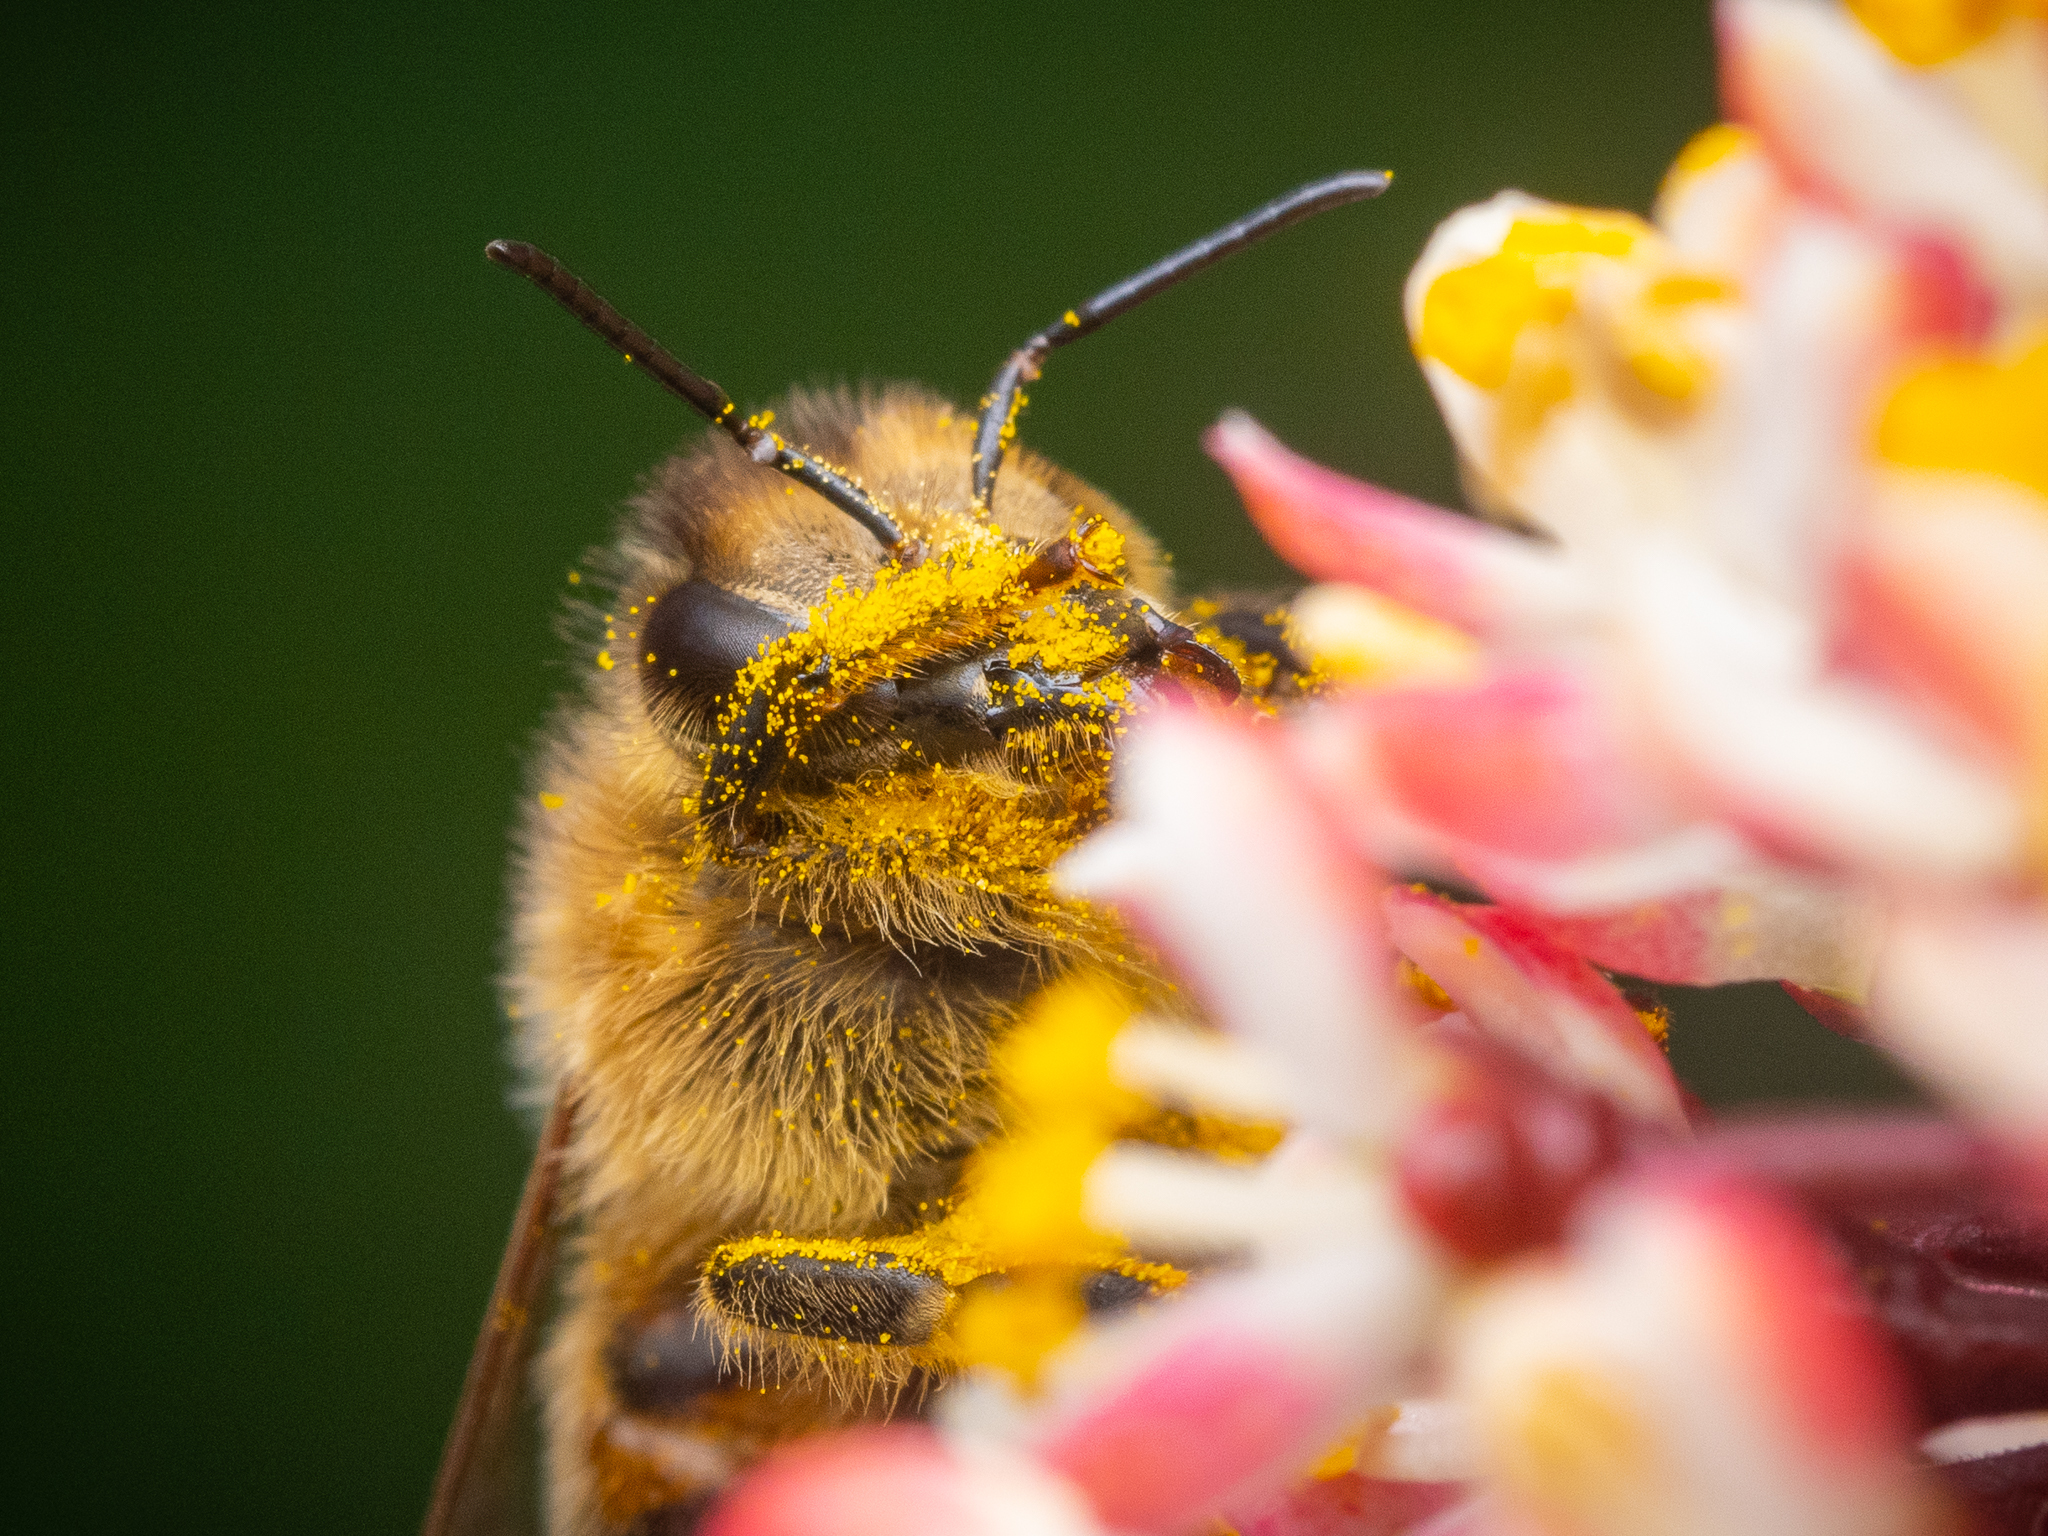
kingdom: Animalia
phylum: Arthropoda
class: Insecta
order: Hymenoptera
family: Apidae
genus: Apis
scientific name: Apis mellifera
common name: Honey bee
